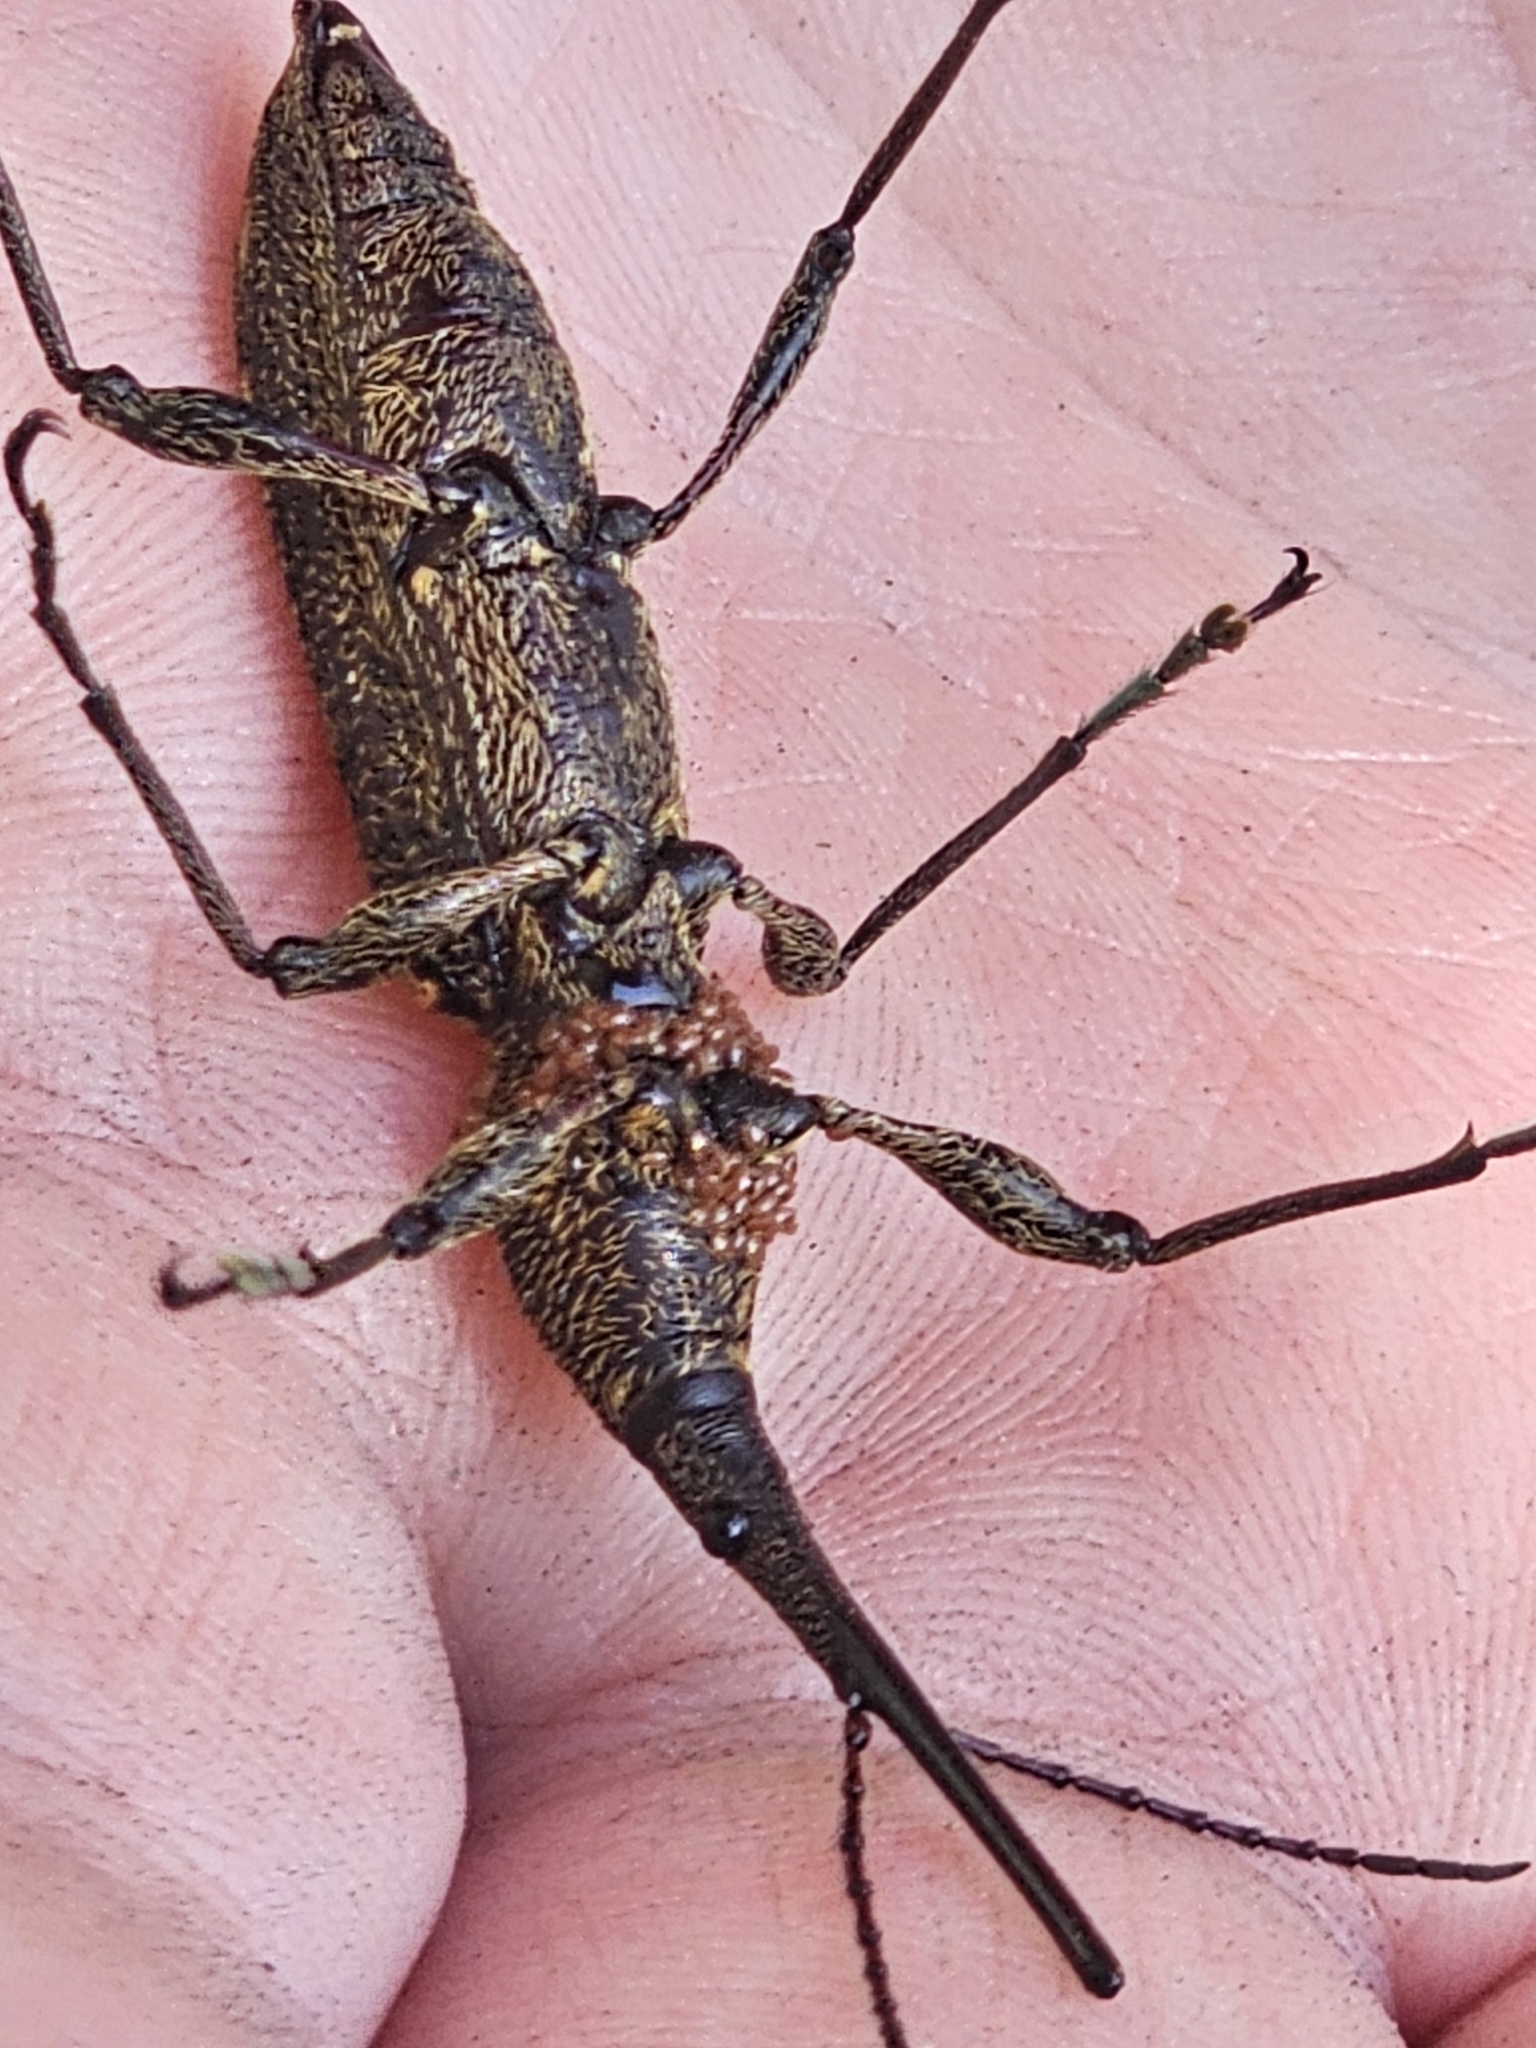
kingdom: Animalia
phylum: Arthropoda
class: Insecta
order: Coleoptera
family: Brentidae
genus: Lasiorhynchus
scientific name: Lasiorhynchus barbicornis
